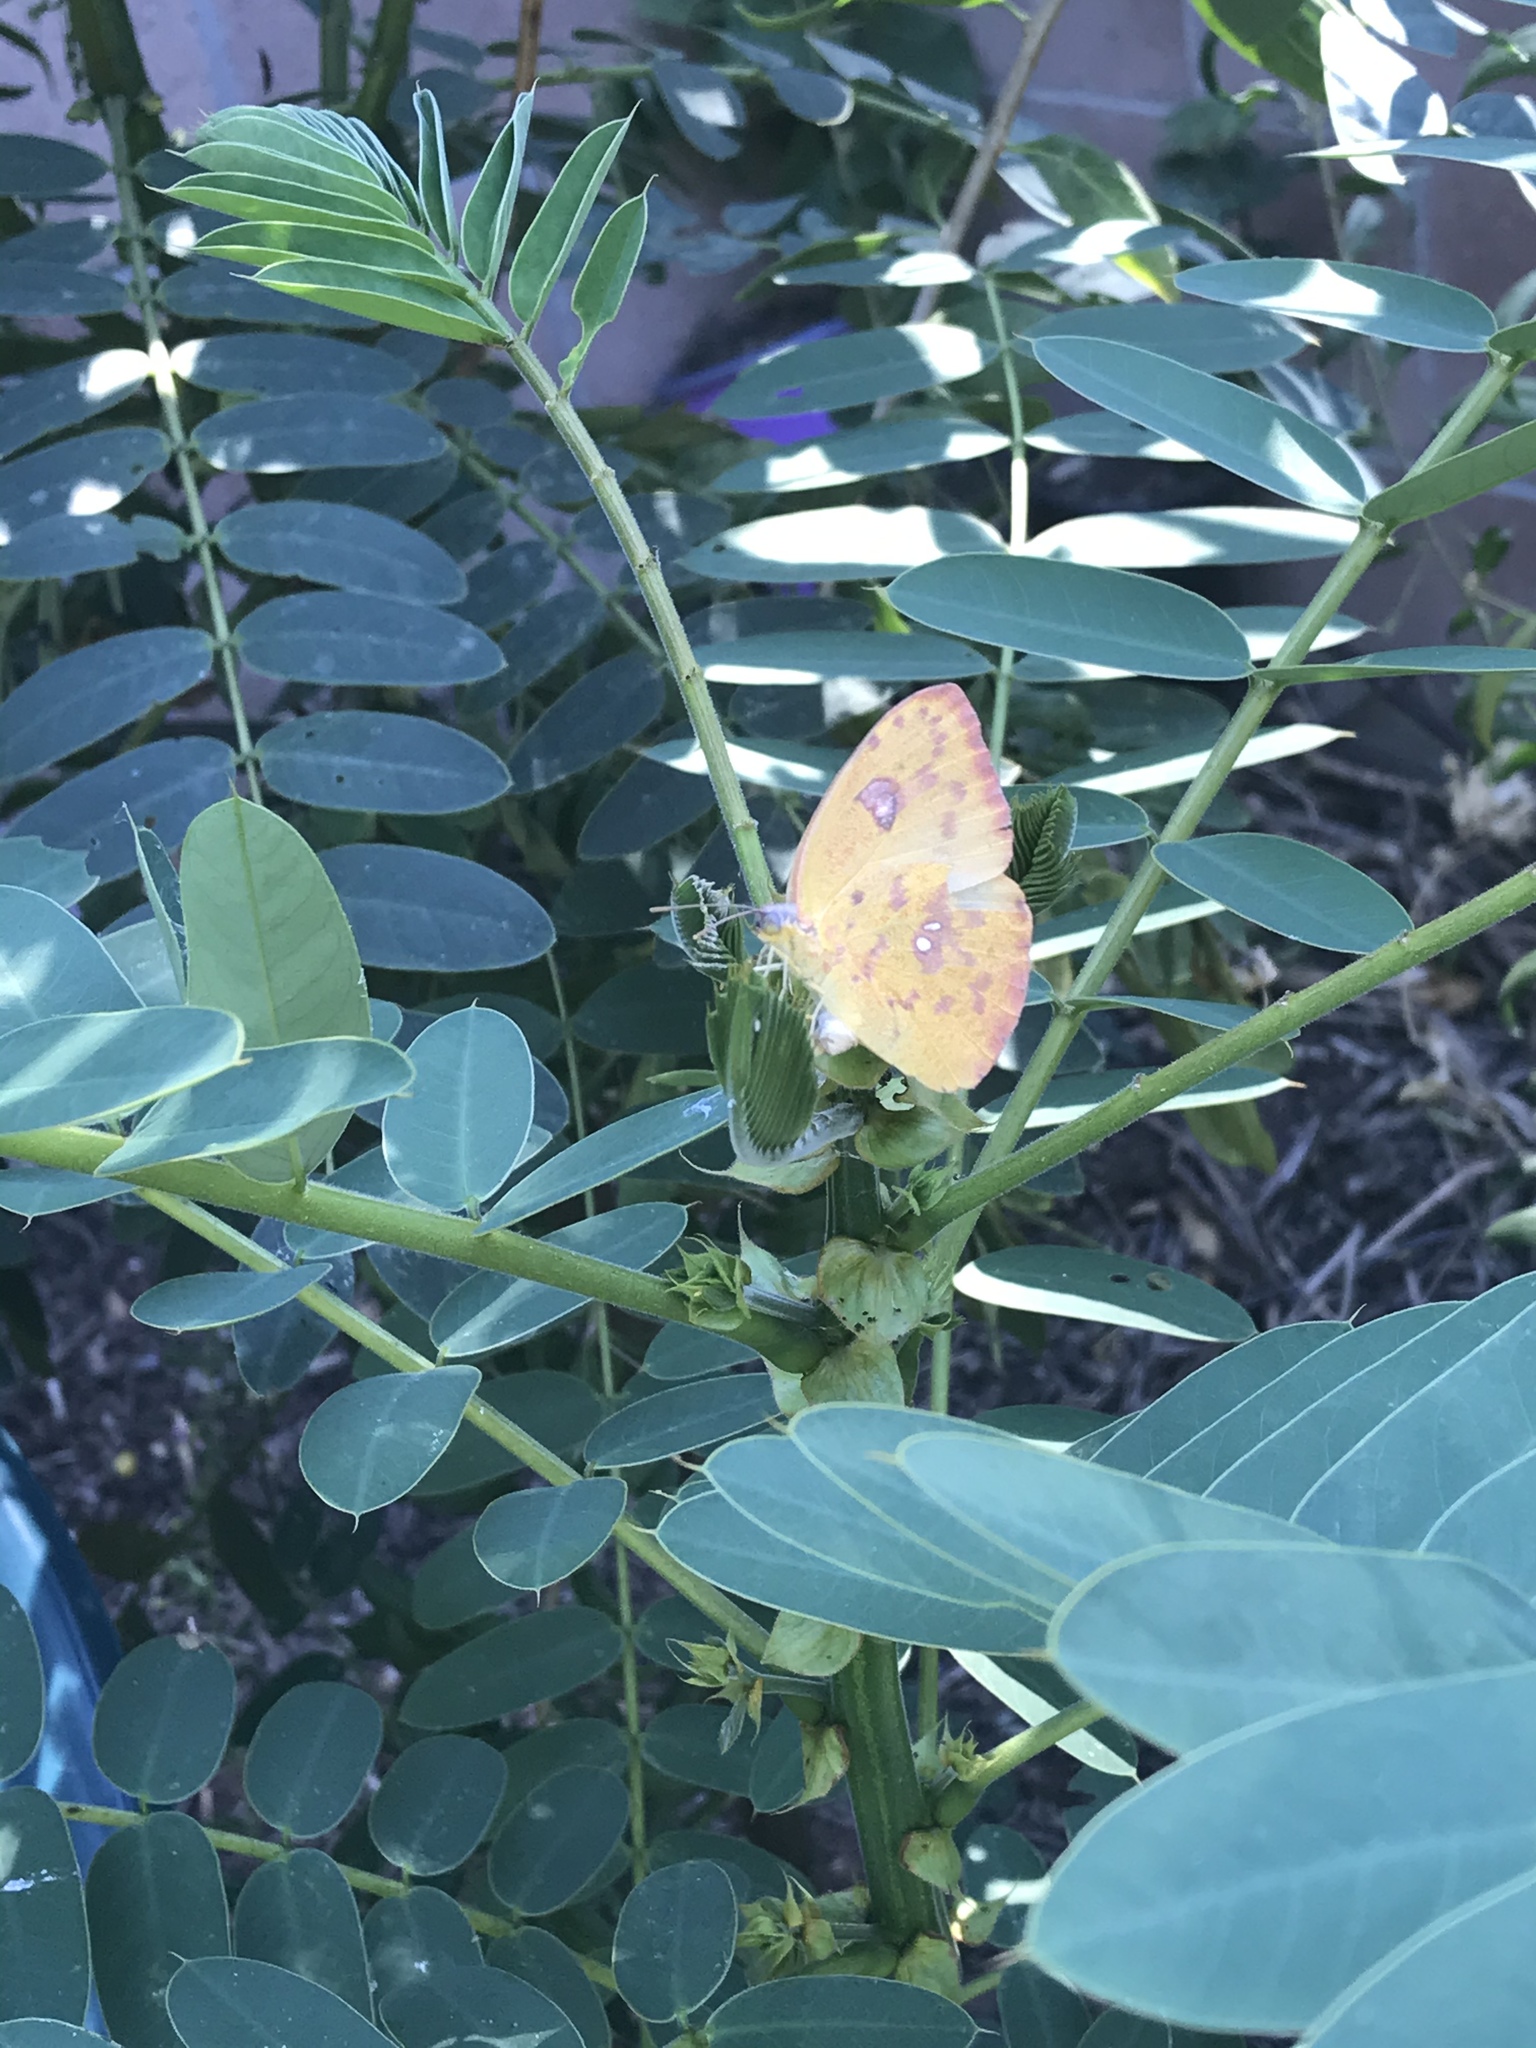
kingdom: Animalia
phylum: Arthropoda
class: Insecta
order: Lepidoptera
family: Pieridae
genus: Phoebis
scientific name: Phoebis sennae
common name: Cloudless sulphur
